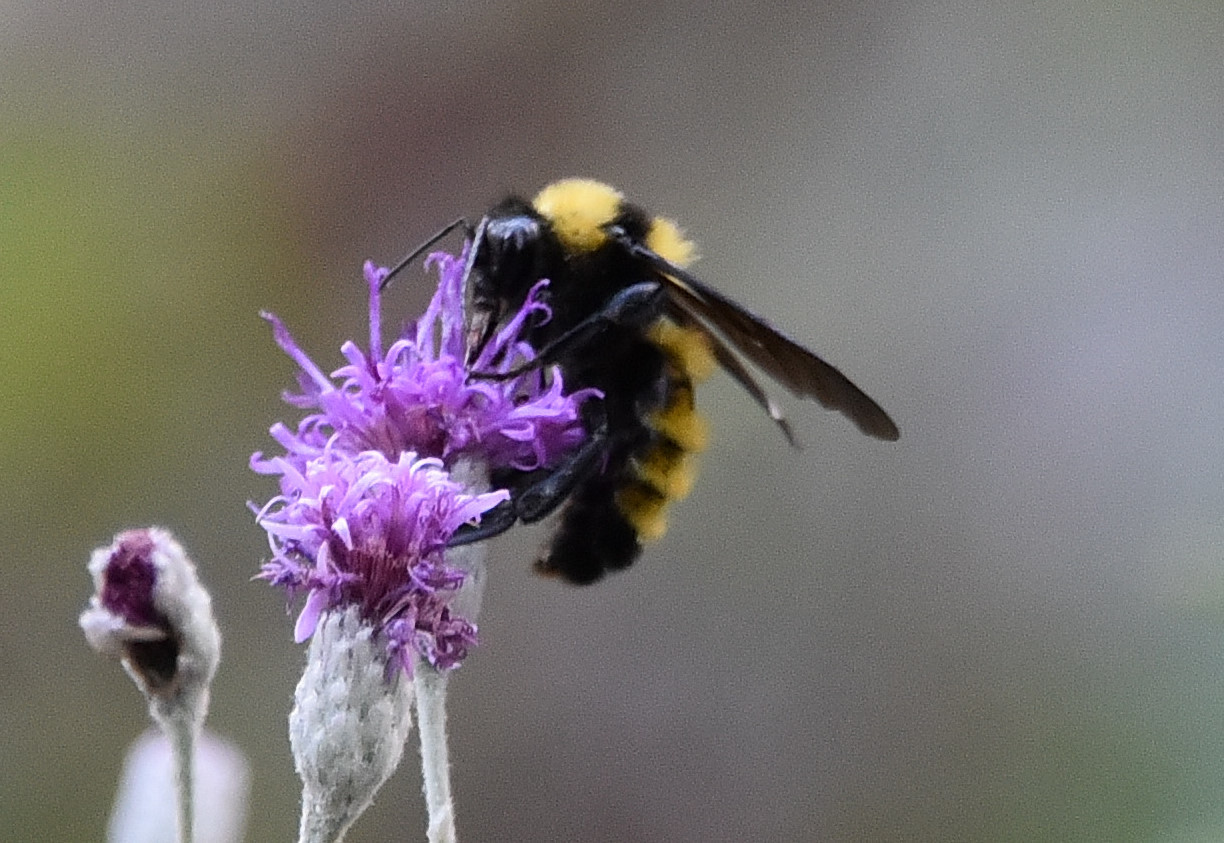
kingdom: Animalia
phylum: Arthropoda
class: Insecta
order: Hymenoptera
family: Apidae
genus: Bombus
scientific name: Bombus sonorus
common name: Sonoran bumble bee
